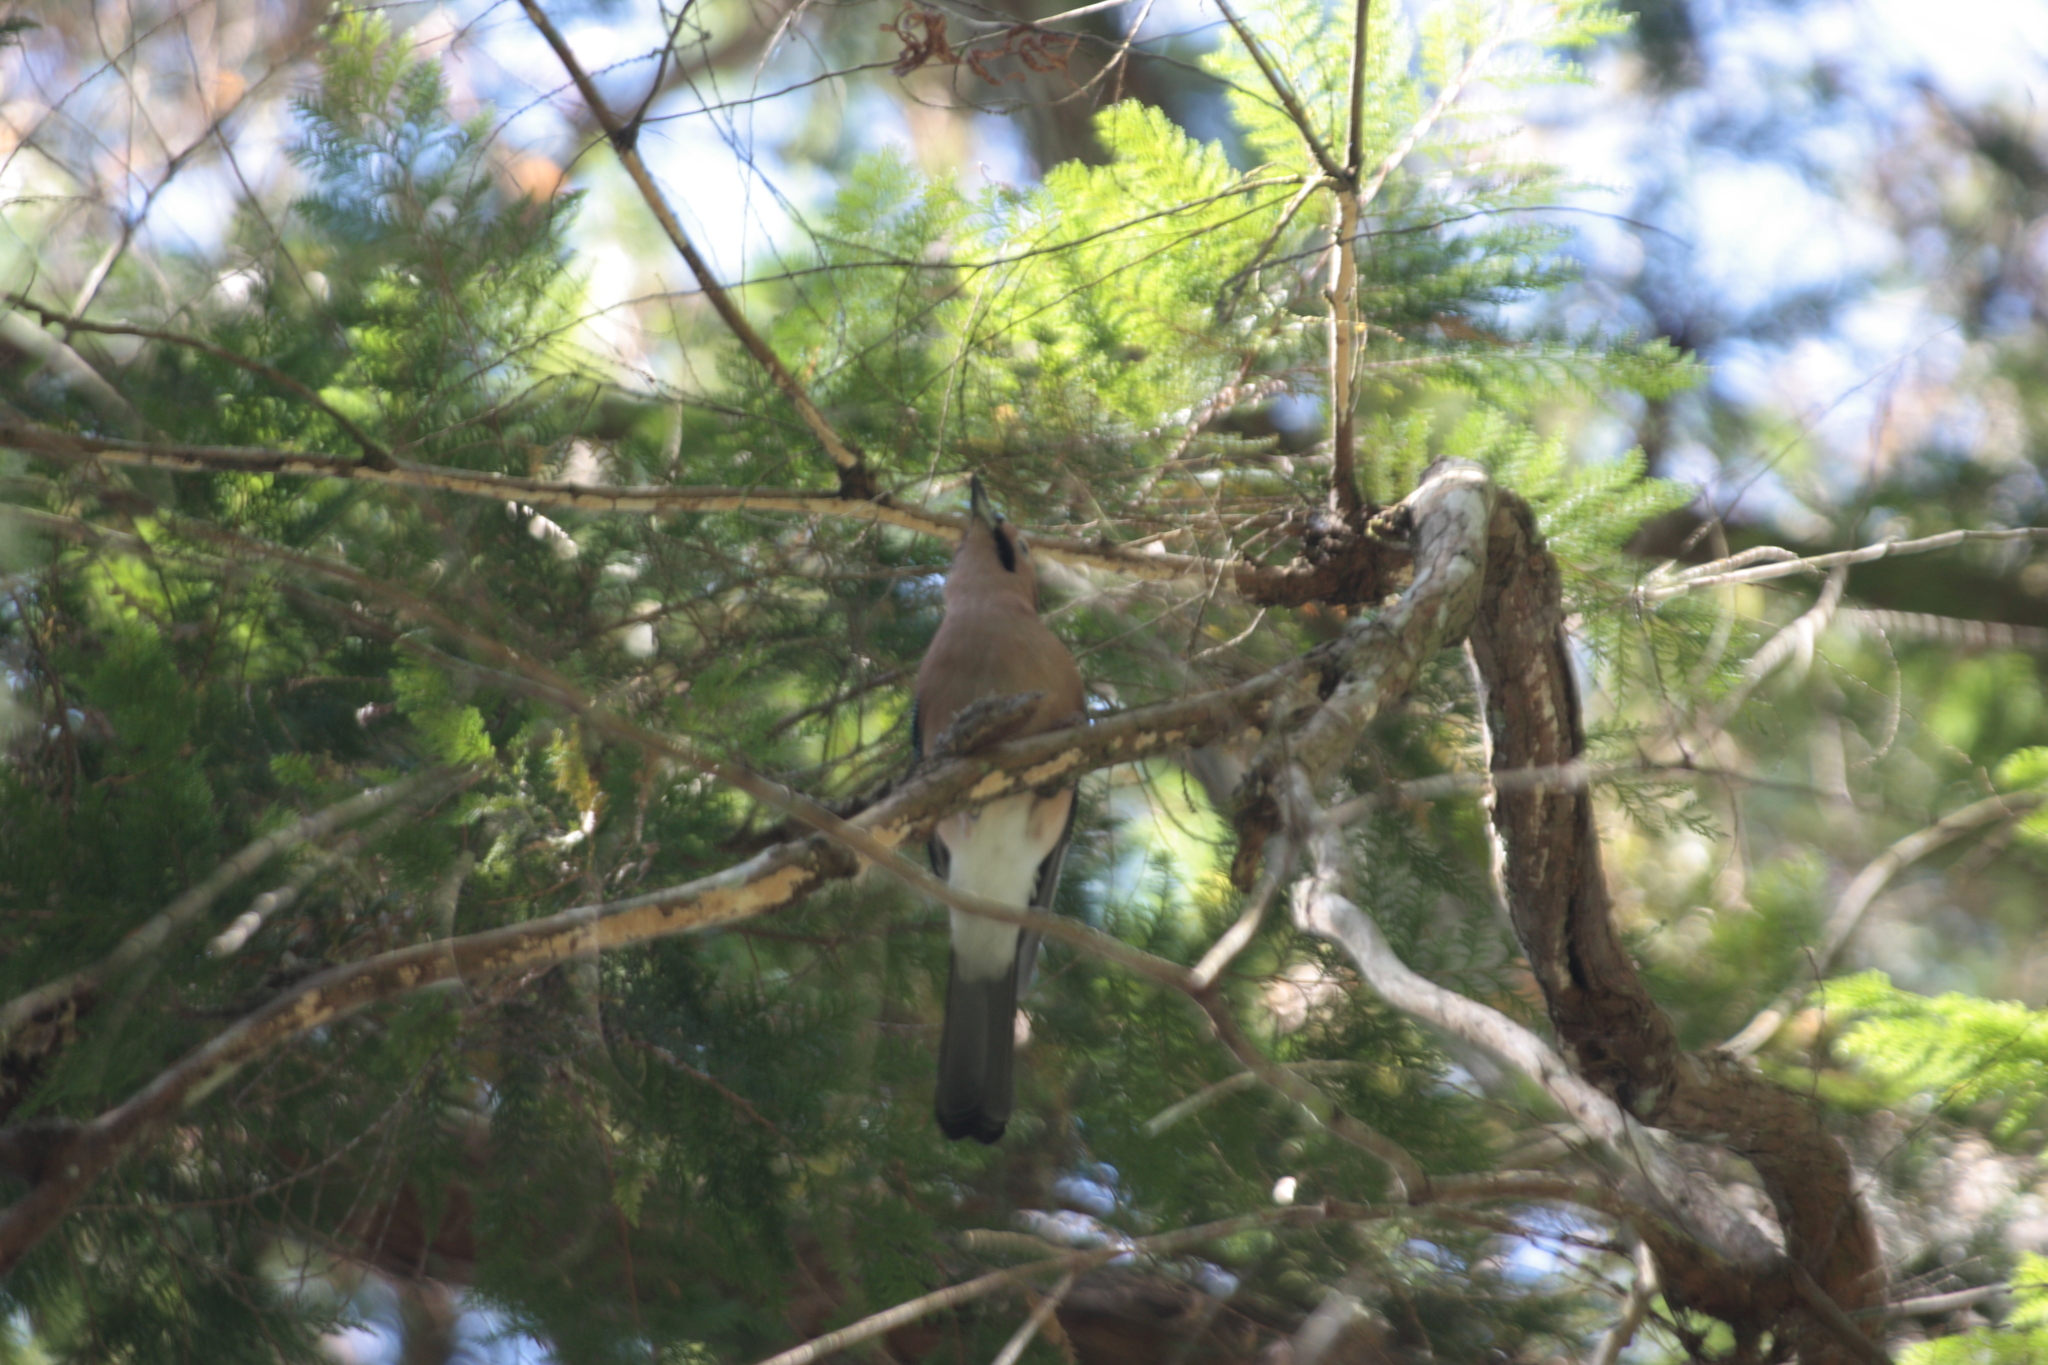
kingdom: Animalia
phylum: Chordata
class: Aves
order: Passeriformes
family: Corvidae
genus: Garrulus
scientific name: Garrulus glandarius
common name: Eurasian jay
